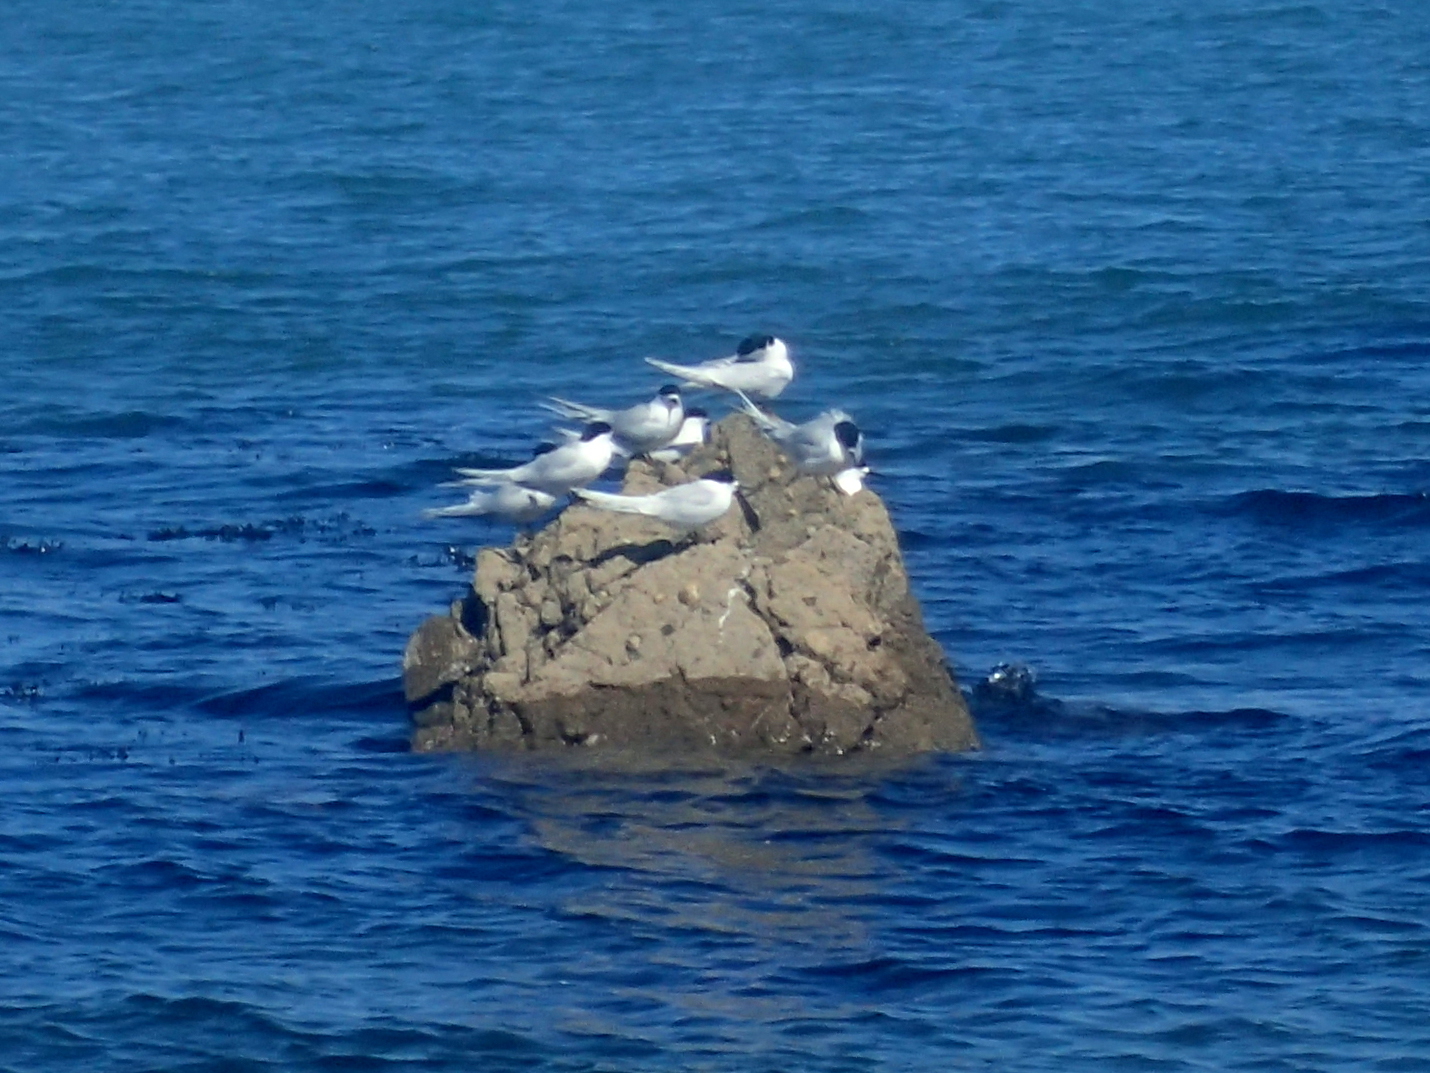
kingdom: Animalia
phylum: Chordata
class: Aves
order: Charadriiformes
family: Laridae
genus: Sterna
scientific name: Sterna striata
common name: White-fronted tern
